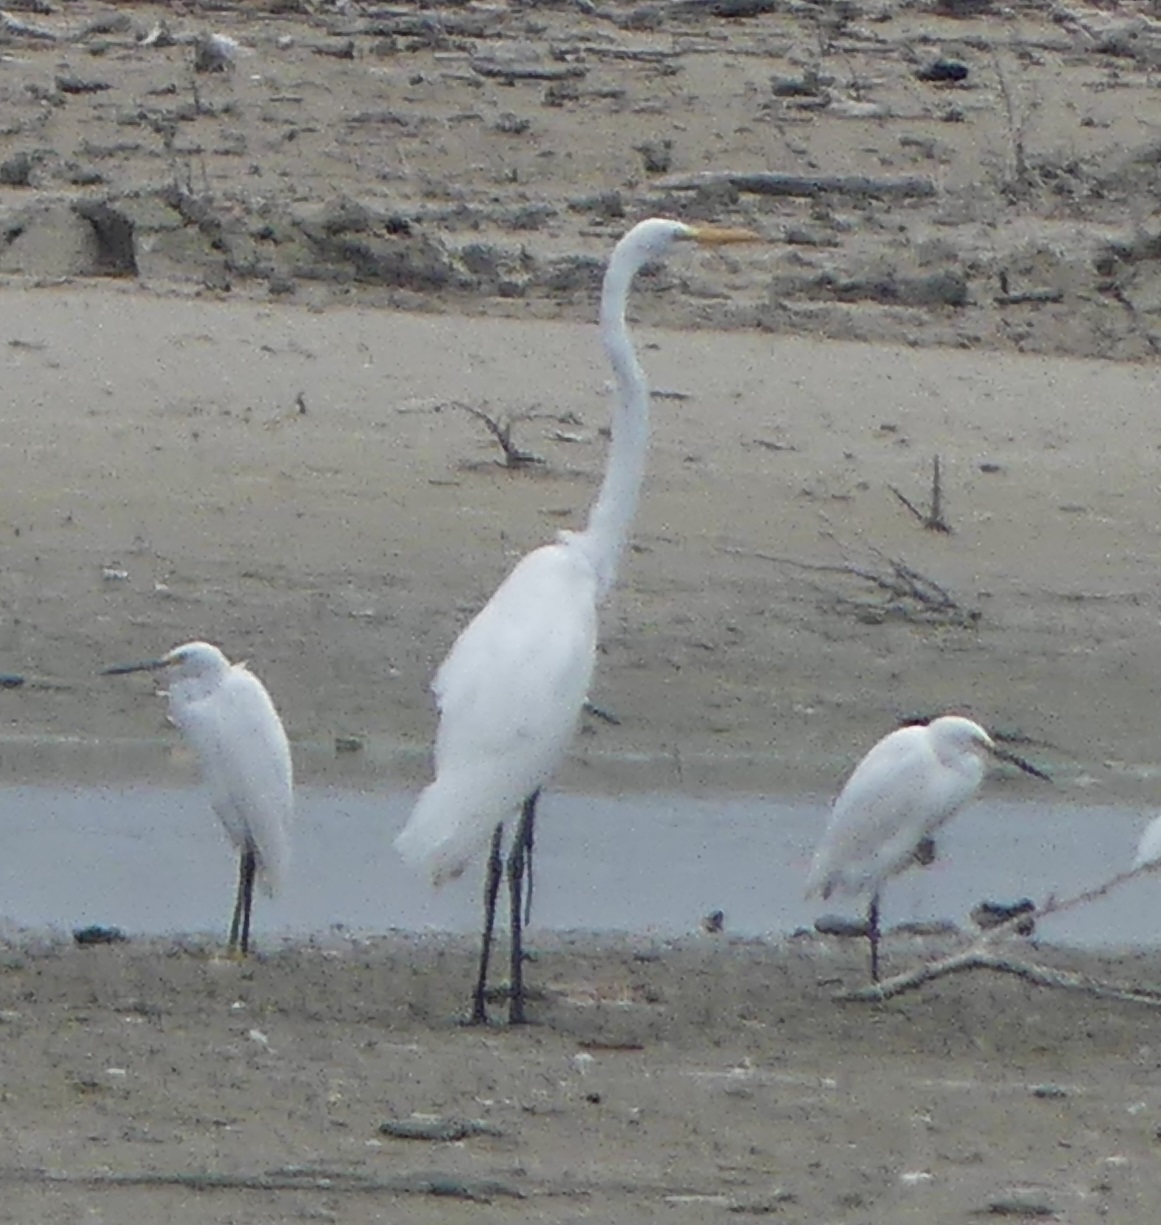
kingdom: Animalia
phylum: Chordata
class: Aves
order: Pelecaniformes
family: Ardeidae
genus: Ardea
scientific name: Ardea alba
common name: Great egret
